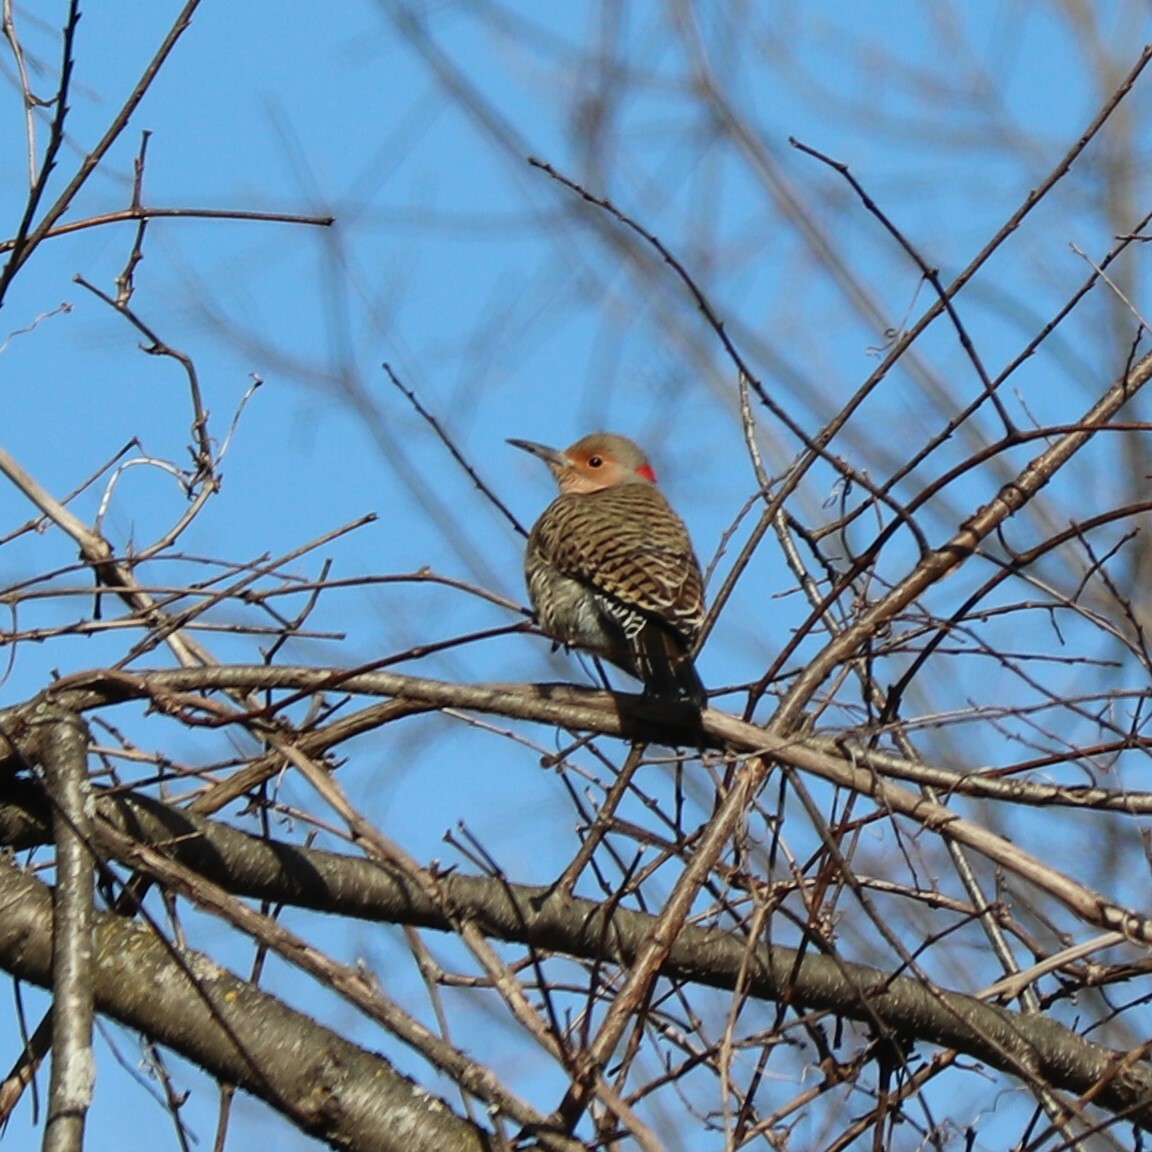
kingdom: Animalia
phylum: Chordata
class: Aves
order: Piciformes
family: Picidae
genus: Colaptes
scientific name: Colaptes auratus
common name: Northern flicker
